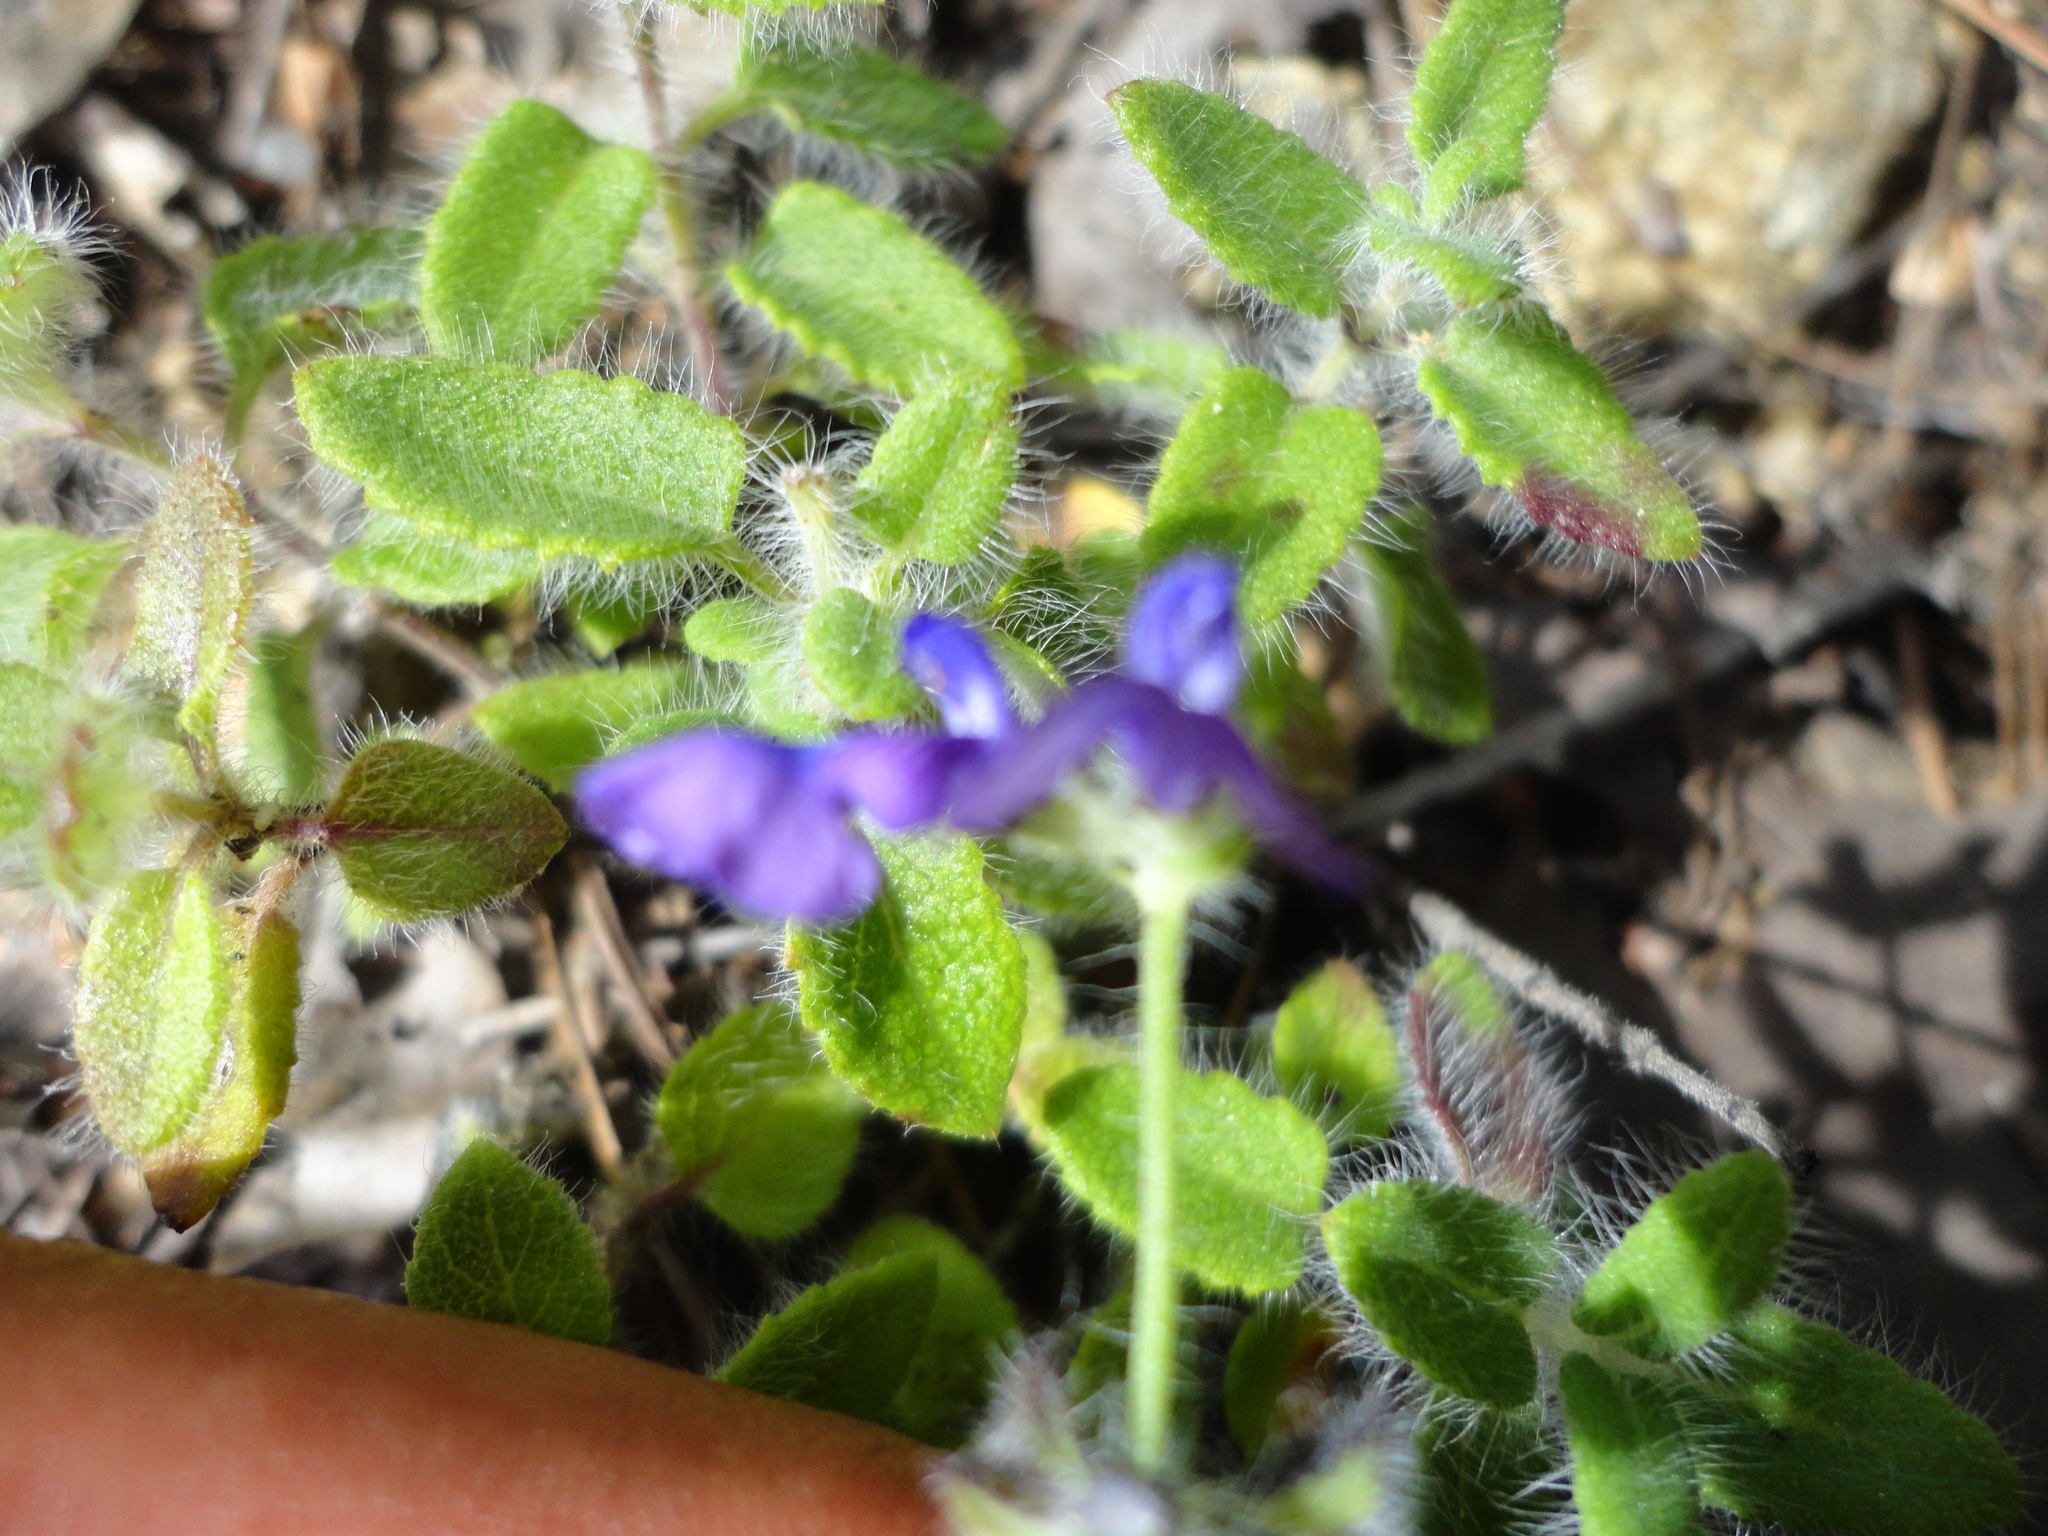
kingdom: Plantae
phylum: Tracheophyta
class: Magnoliopsida
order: Lamiales
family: Lamiaceae
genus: Salvia
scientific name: Salvia pusilla
